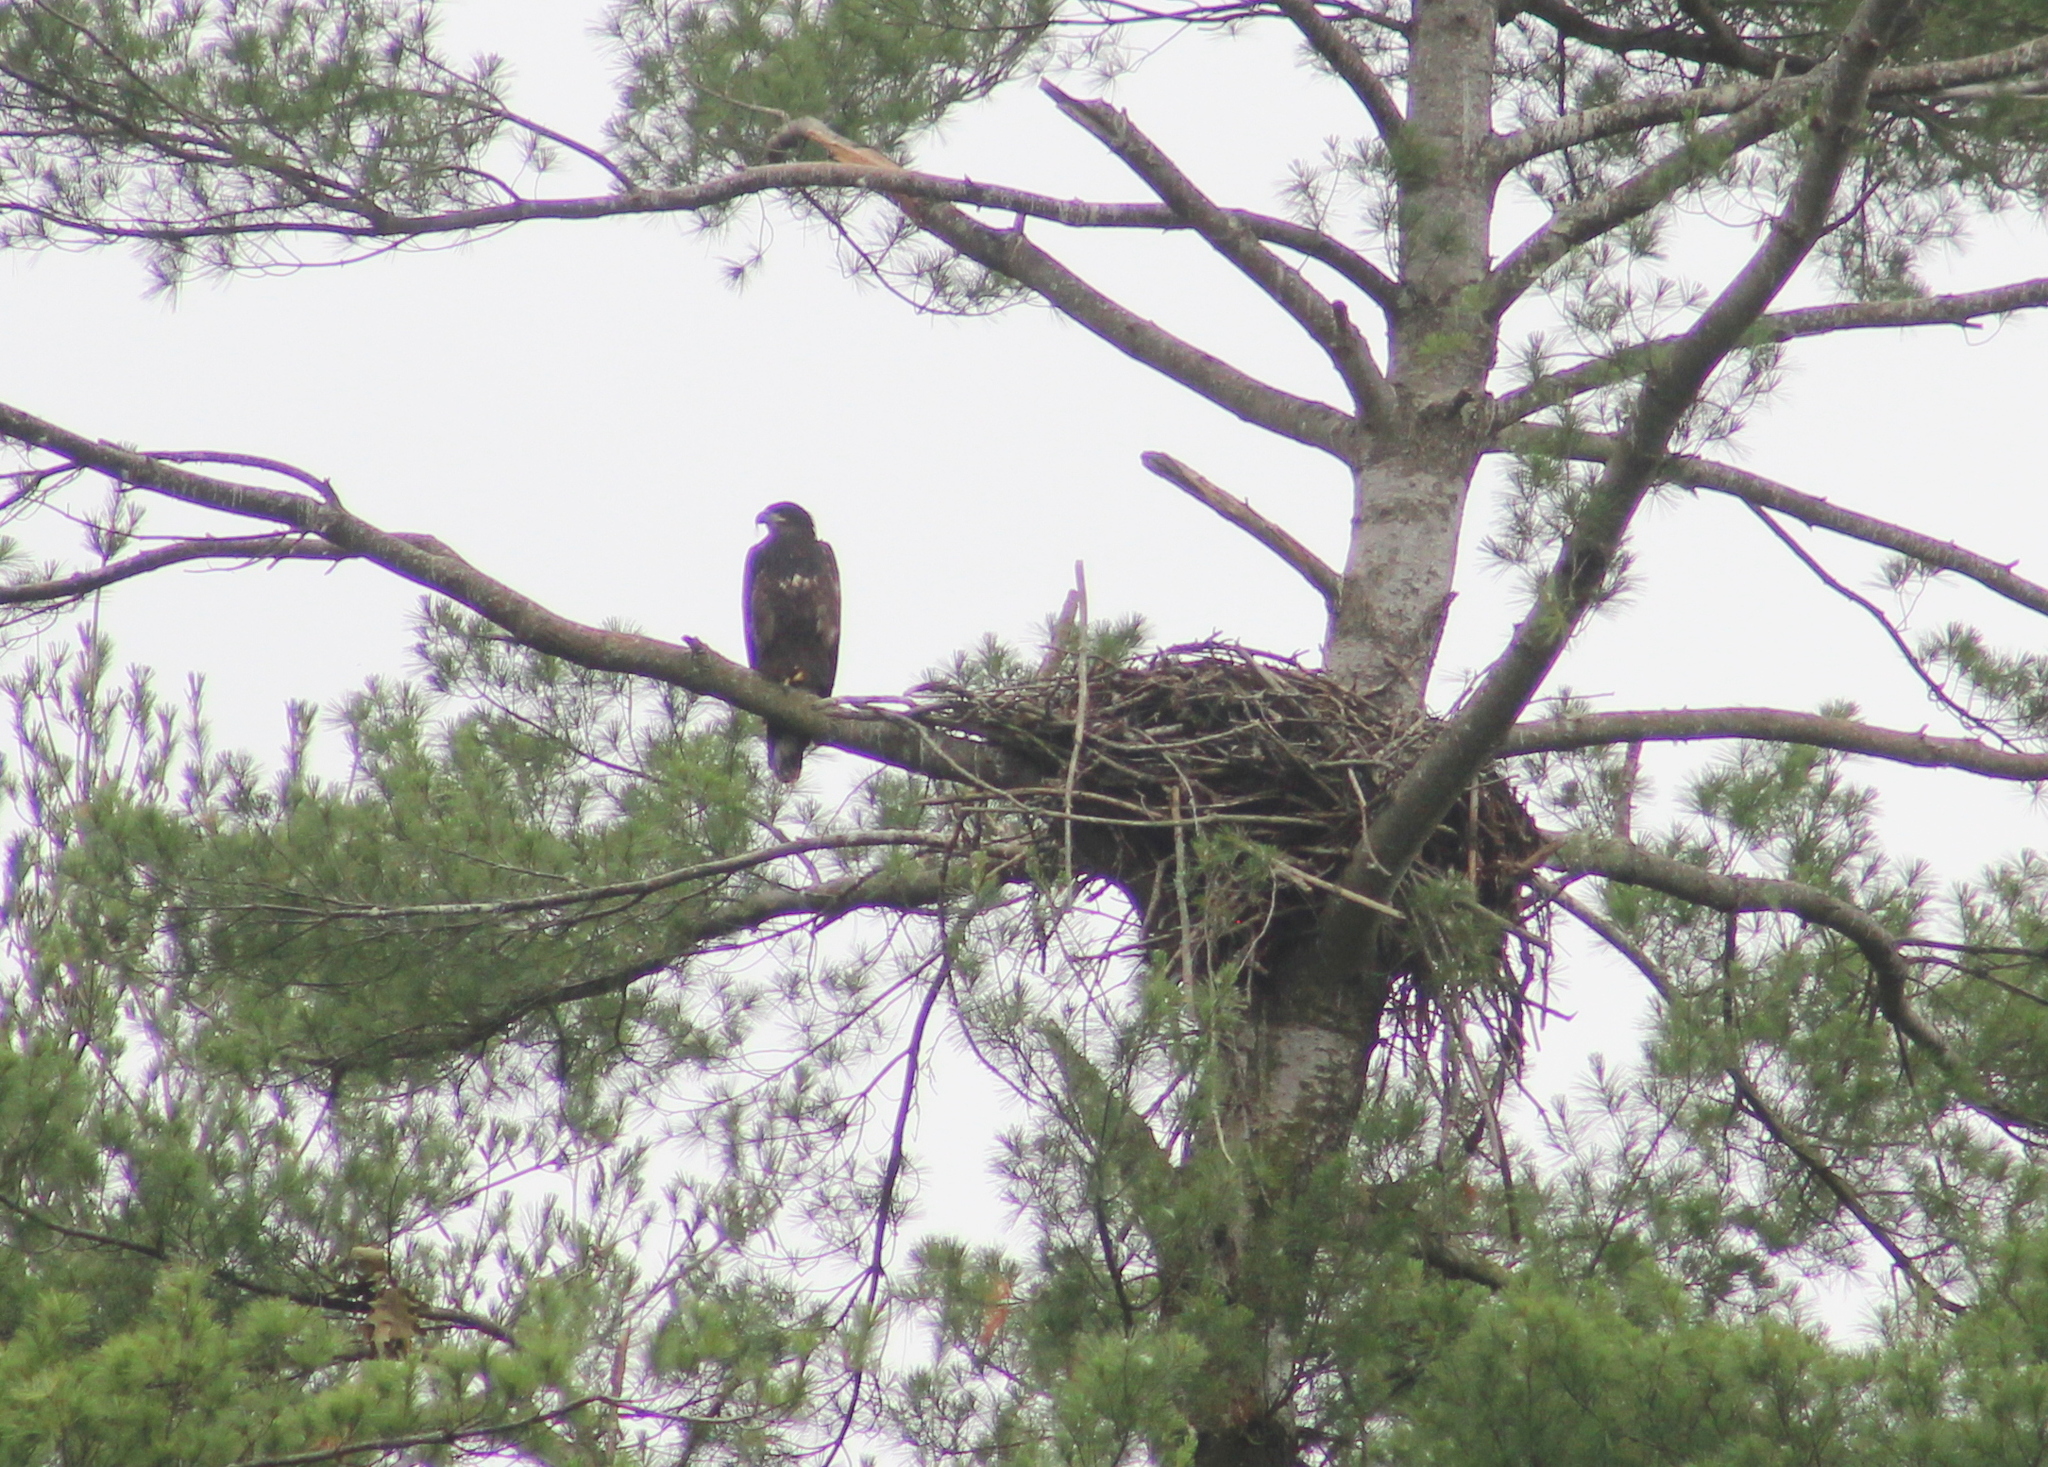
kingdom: Animalia
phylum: Chordata
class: Aves
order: Accipitriformes
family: Accipitridae
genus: Haliaeetus
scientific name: Haliaeetus leucocephalus
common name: Bald eagle
